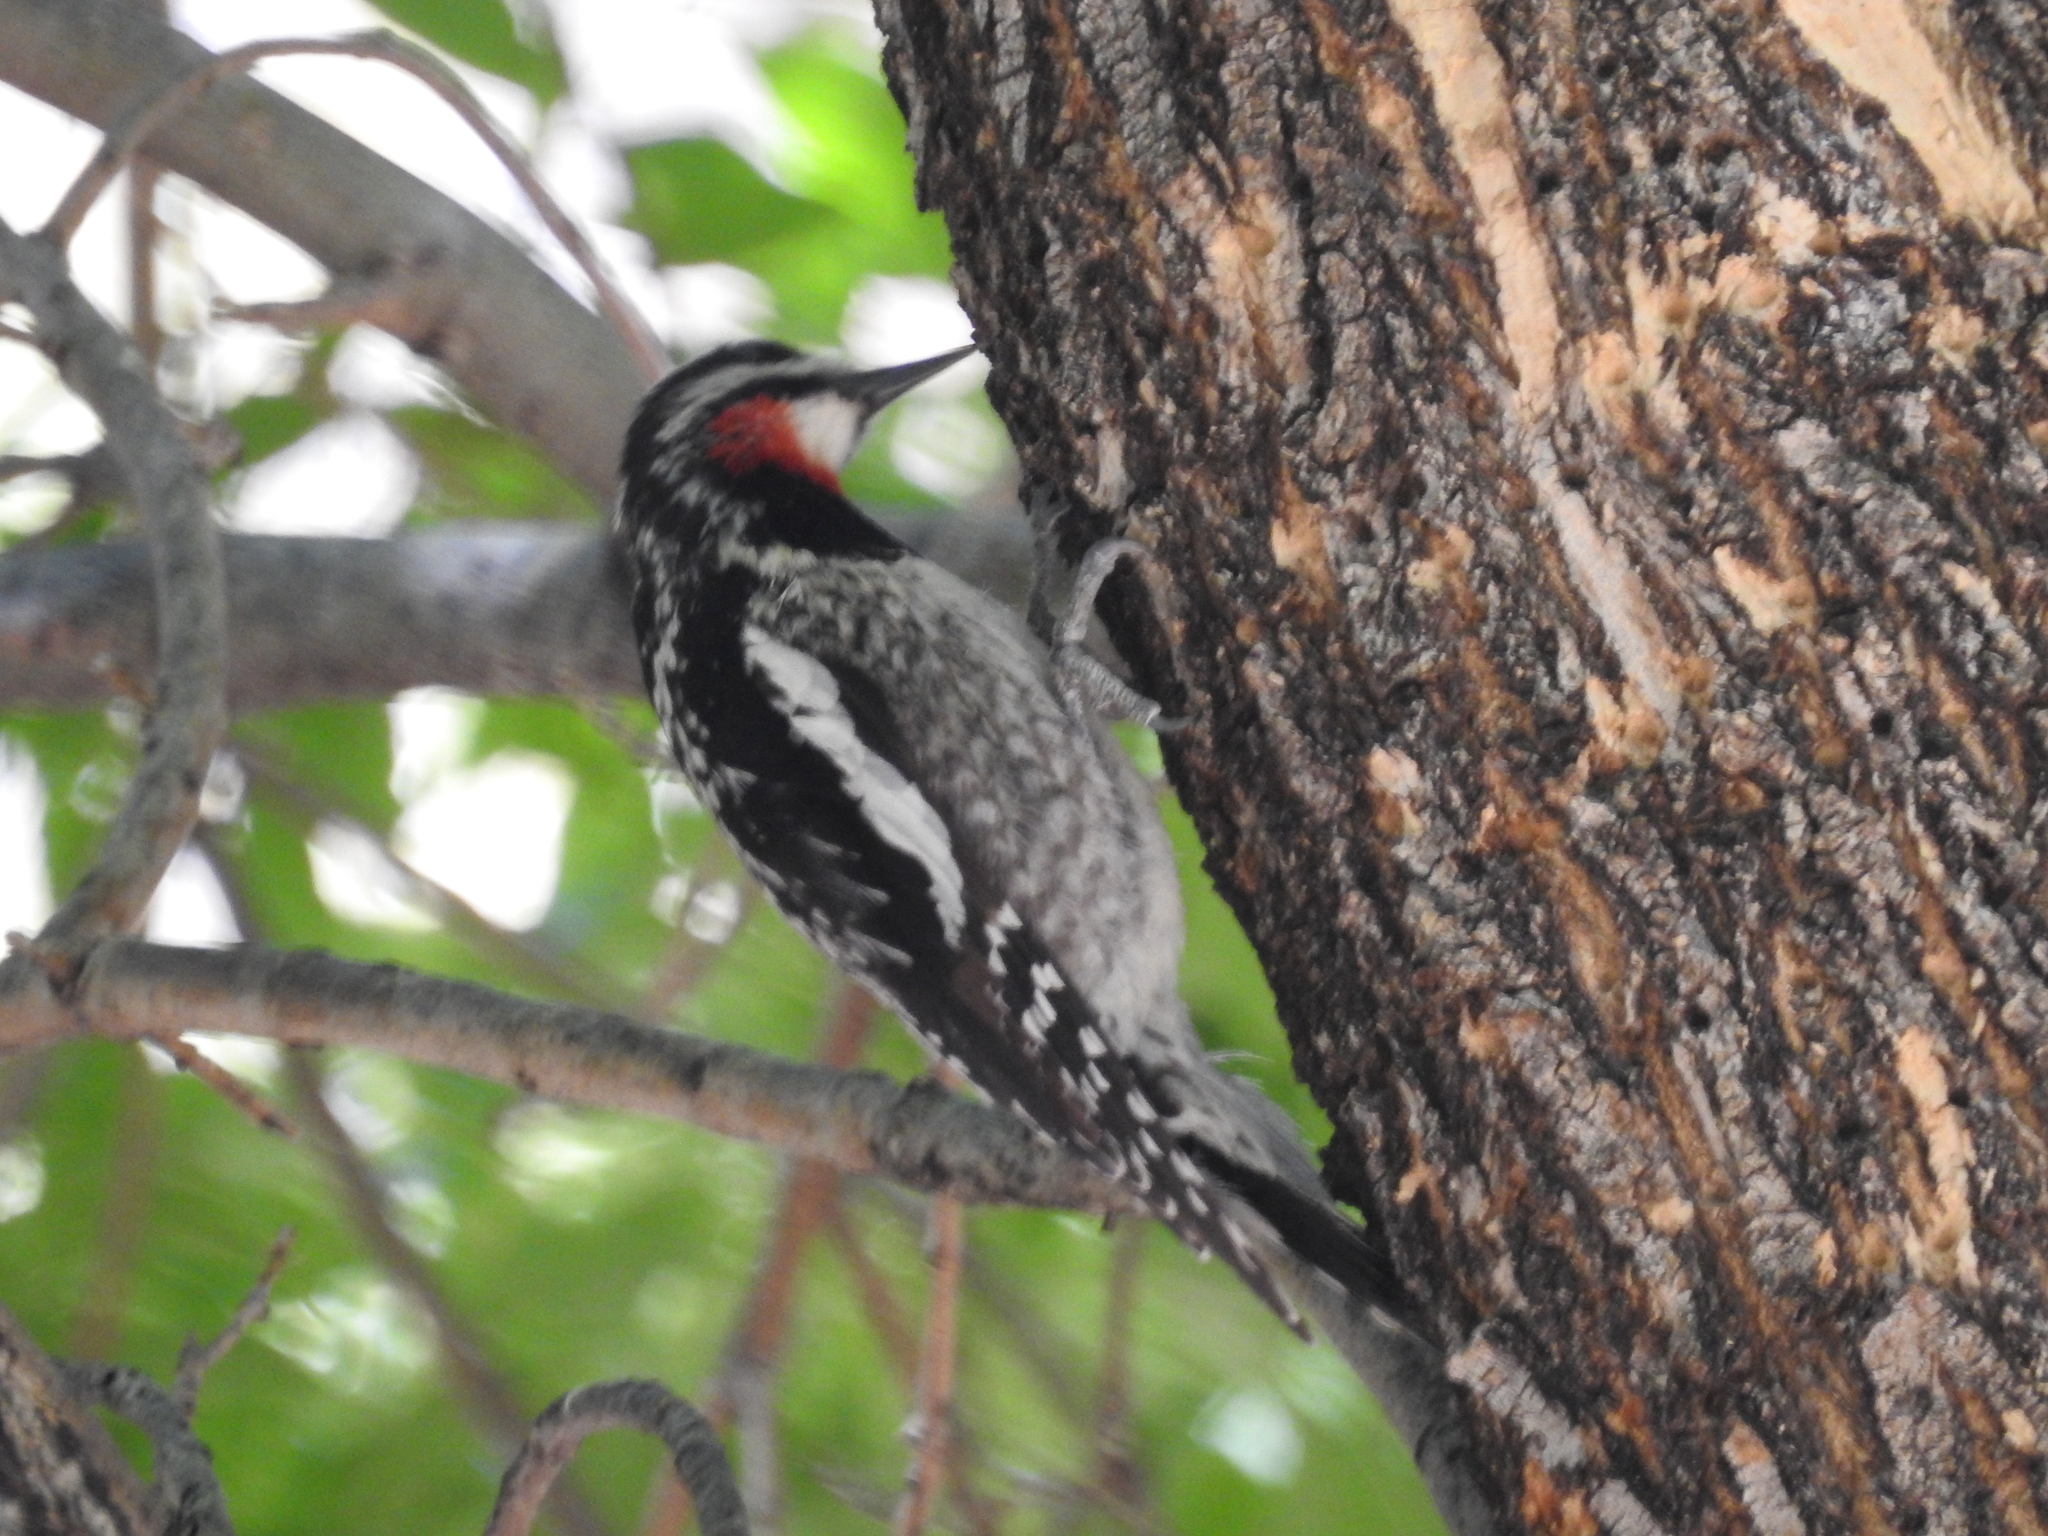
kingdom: Animalia
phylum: Chordata
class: Aves
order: Piciformes
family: Picidae
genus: Sphyrapicus
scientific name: Sphyrapicus nuchalis
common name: Red-naped sapsucker
